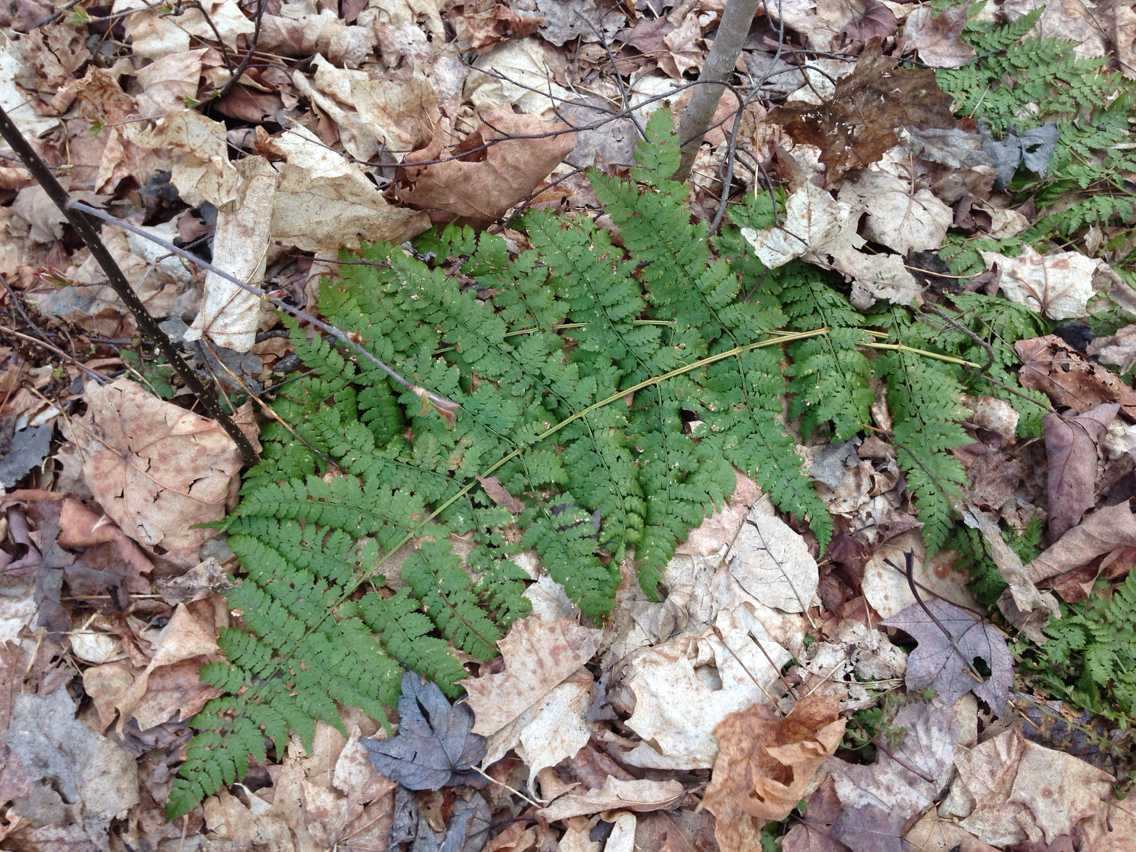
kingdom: Plantae
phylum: Tracheophyta
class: Polypodiopsida
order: Polypodiales
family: Dryopteridaceae
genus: Dryopteris
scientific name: Dryopteris intermedia
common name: Evergreen wood fern
